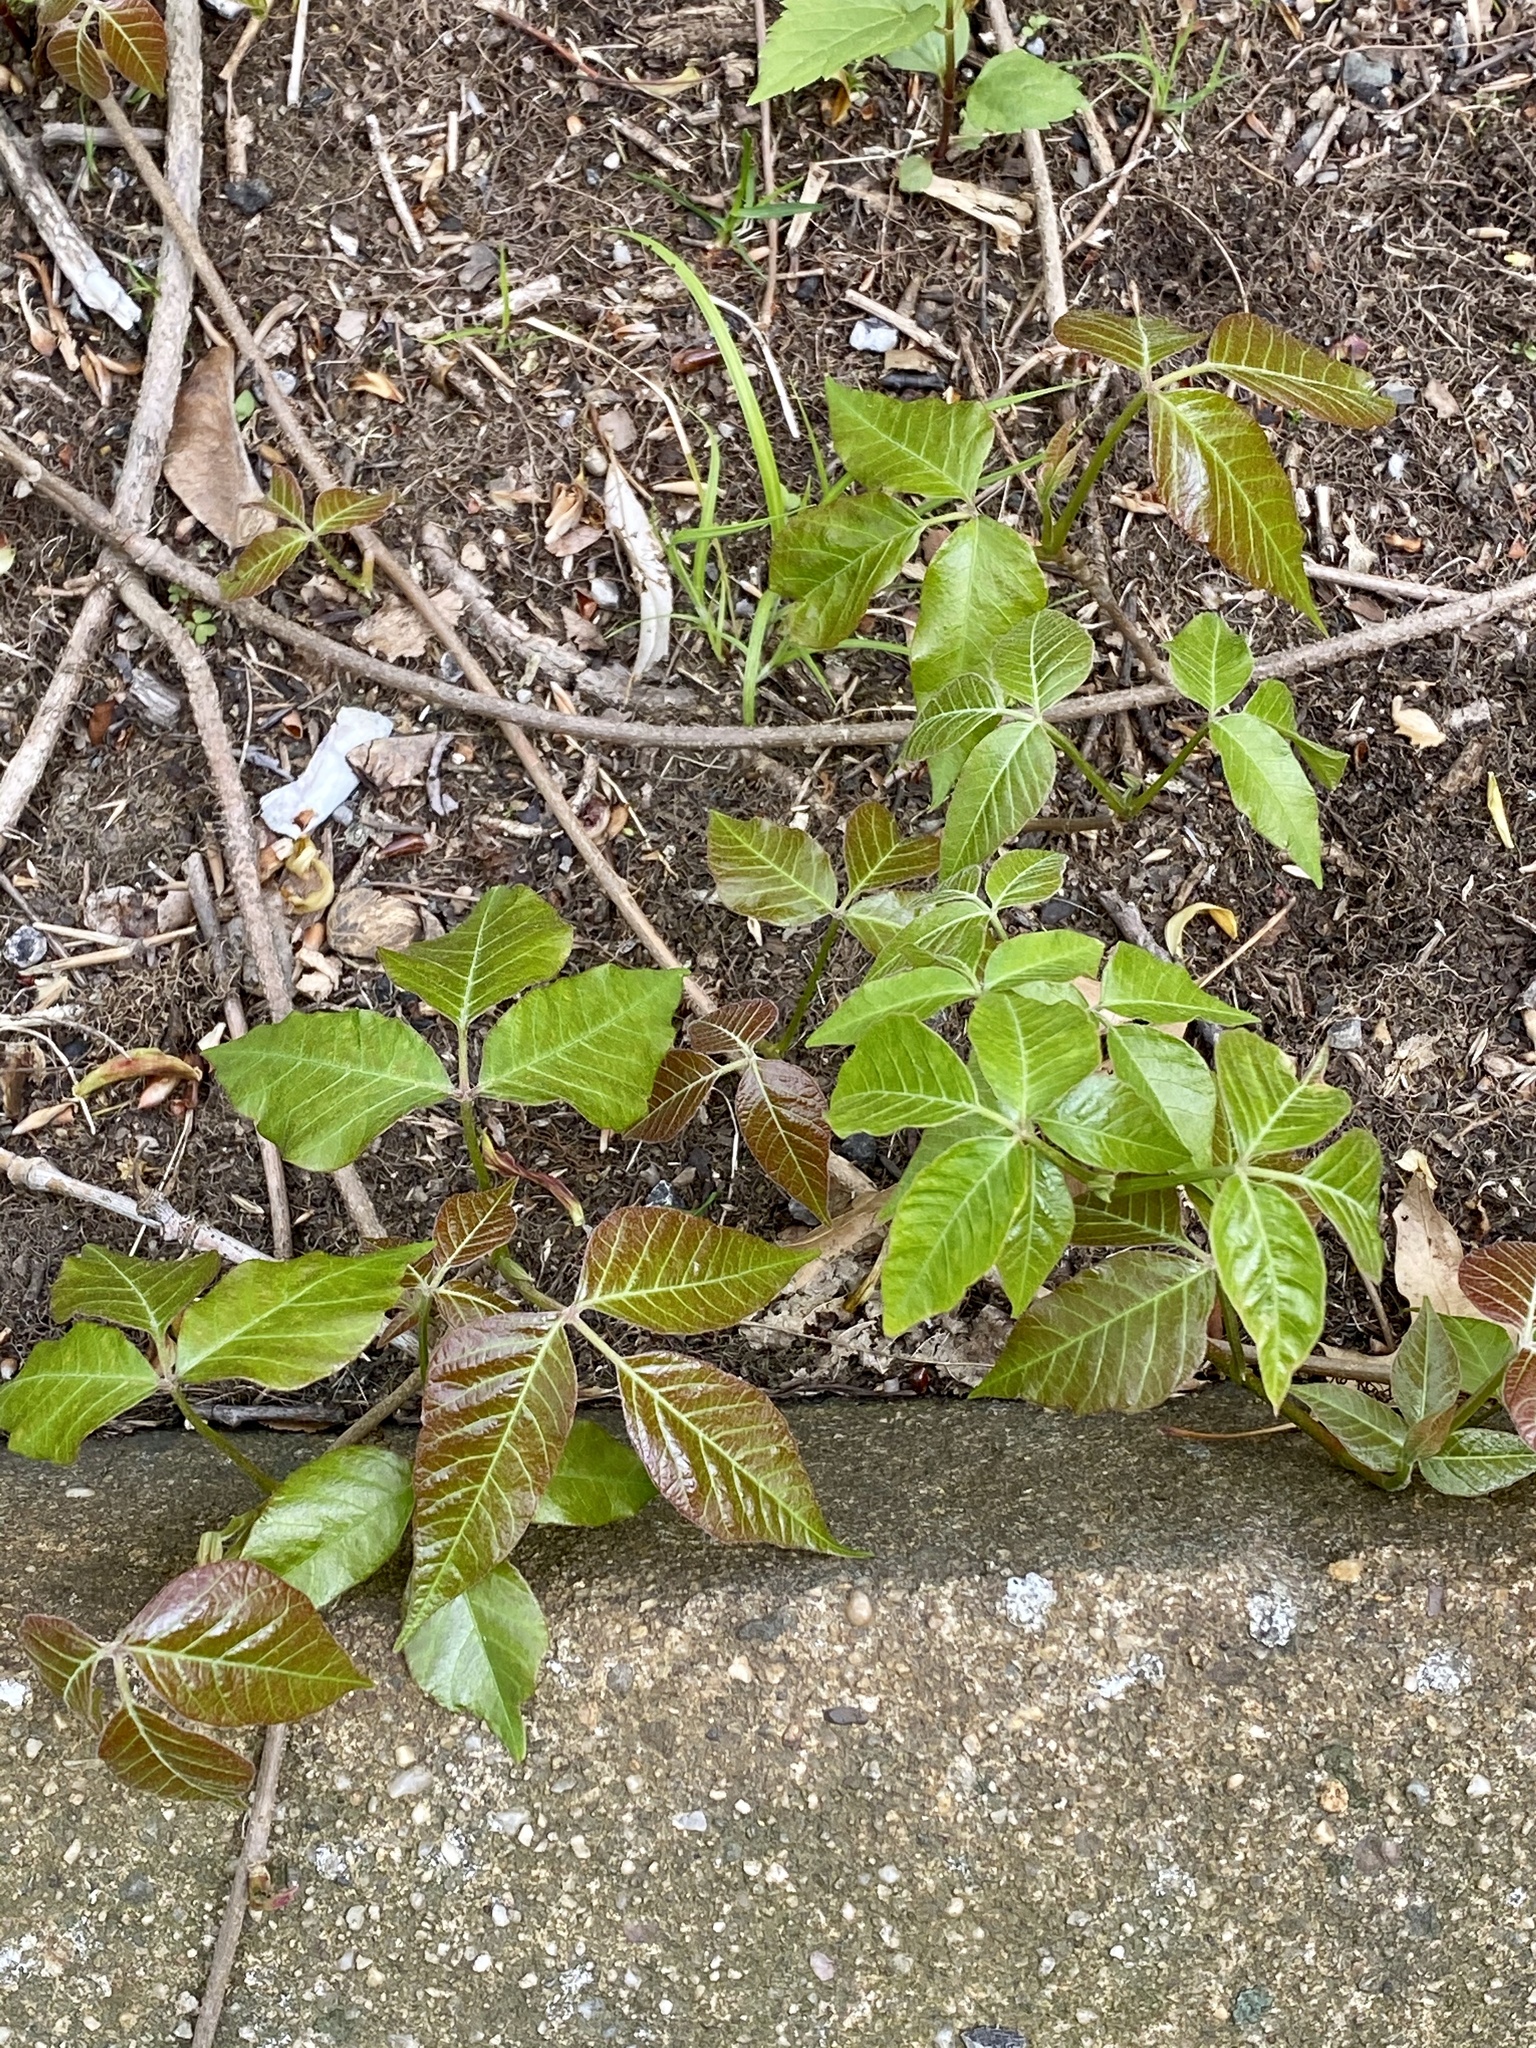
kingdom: Plantae
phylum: Tracheophyta
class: Magnoliopsida
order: Sapindales
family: Anacardiaceae
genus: Toxicodendron
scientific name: Toxicodendron radicans
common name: Poison ivy
